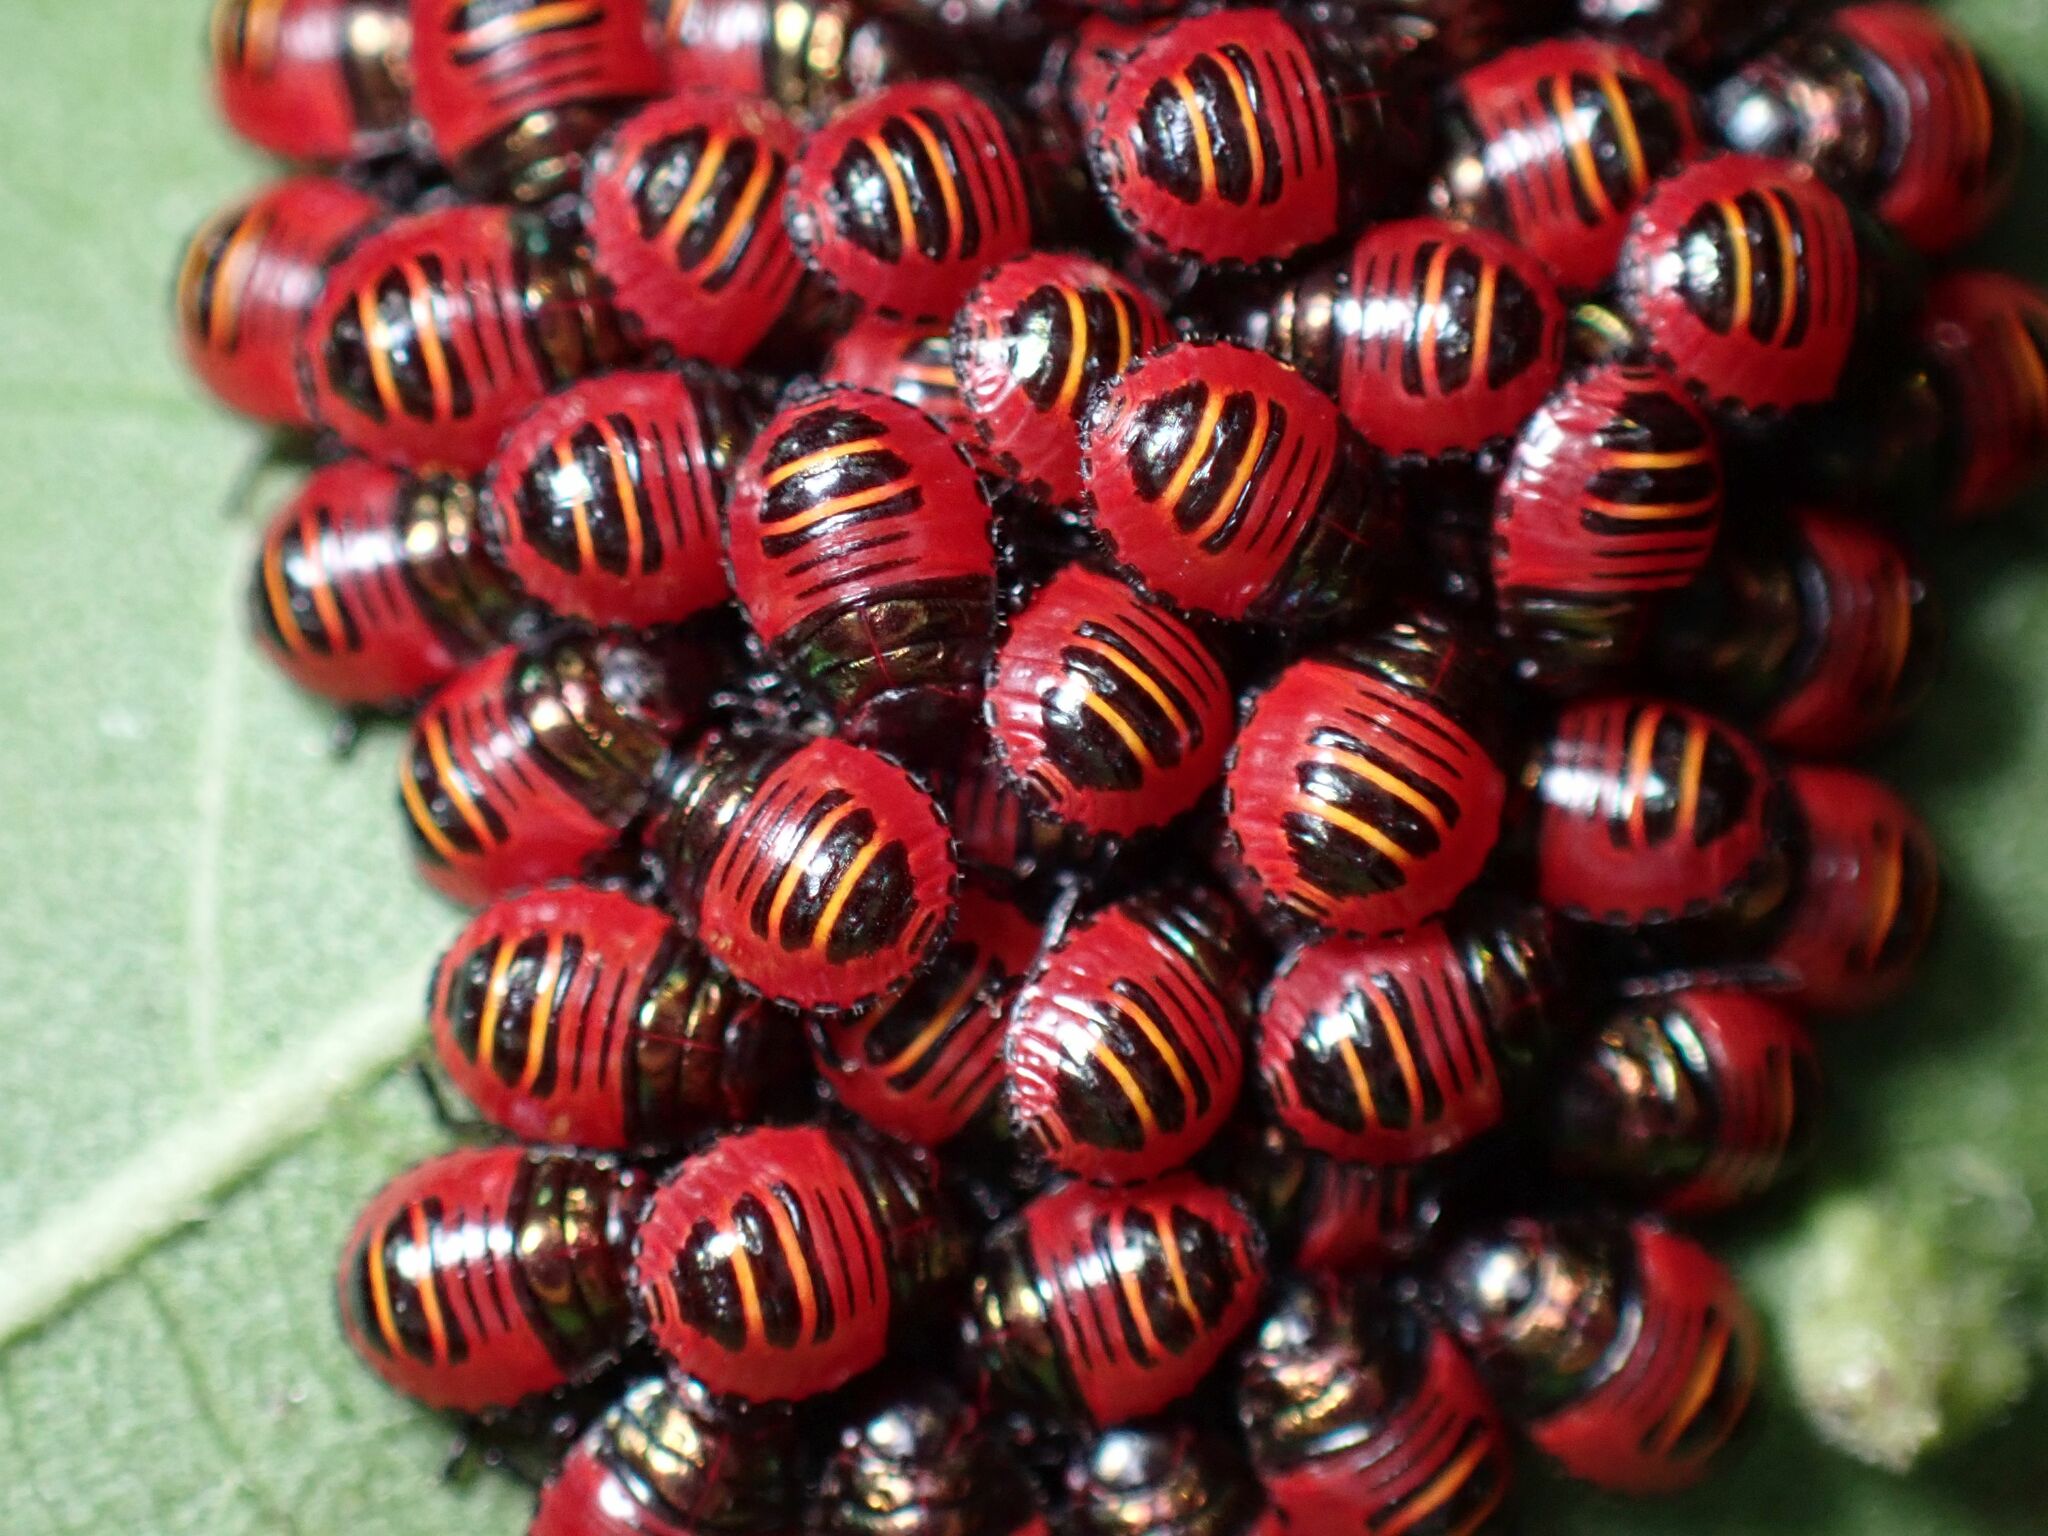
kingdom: Animalia
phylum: Arthropoda
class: Insecta
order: Hemiptera
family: Scutelleridae
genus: Tectocoris
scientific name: Tectocoris diophthalmus
